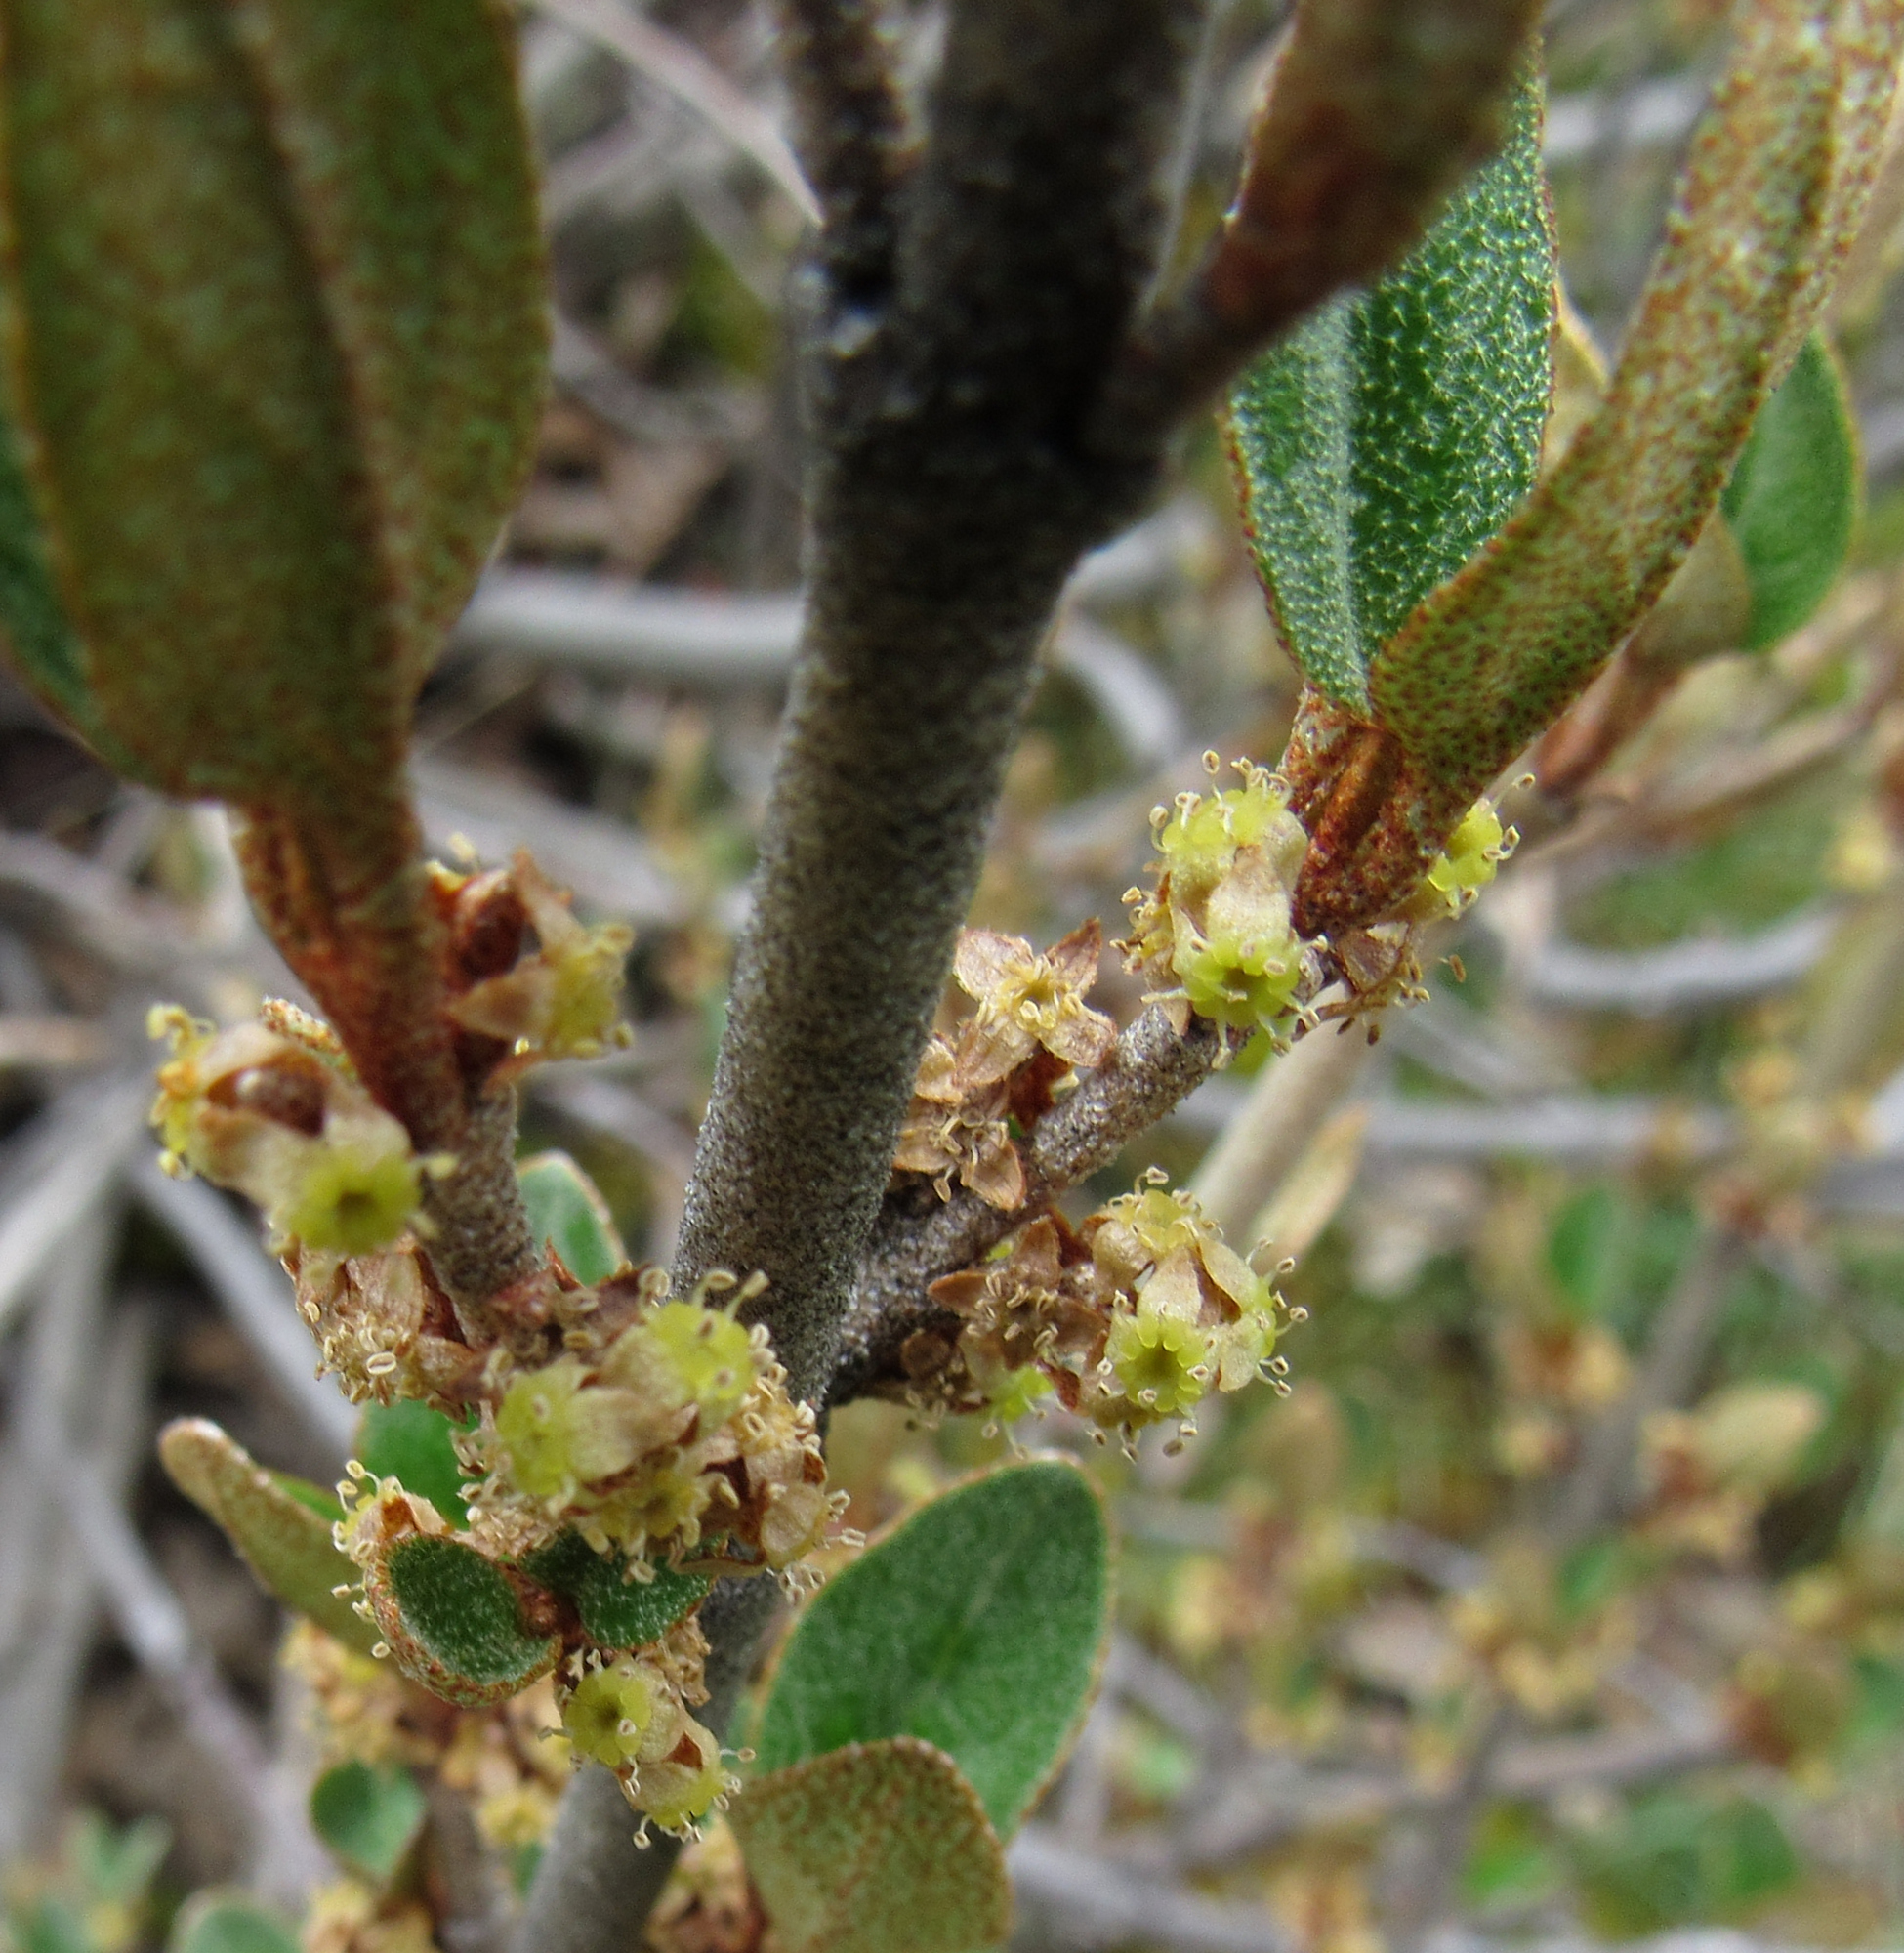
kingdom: Plantae
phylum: Tracheophyta
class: Magnoliopsida
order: Rosales
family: Elaeagnaceae
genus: Shepherdia
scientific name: Shepherdia canadensis
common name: Soapberry
